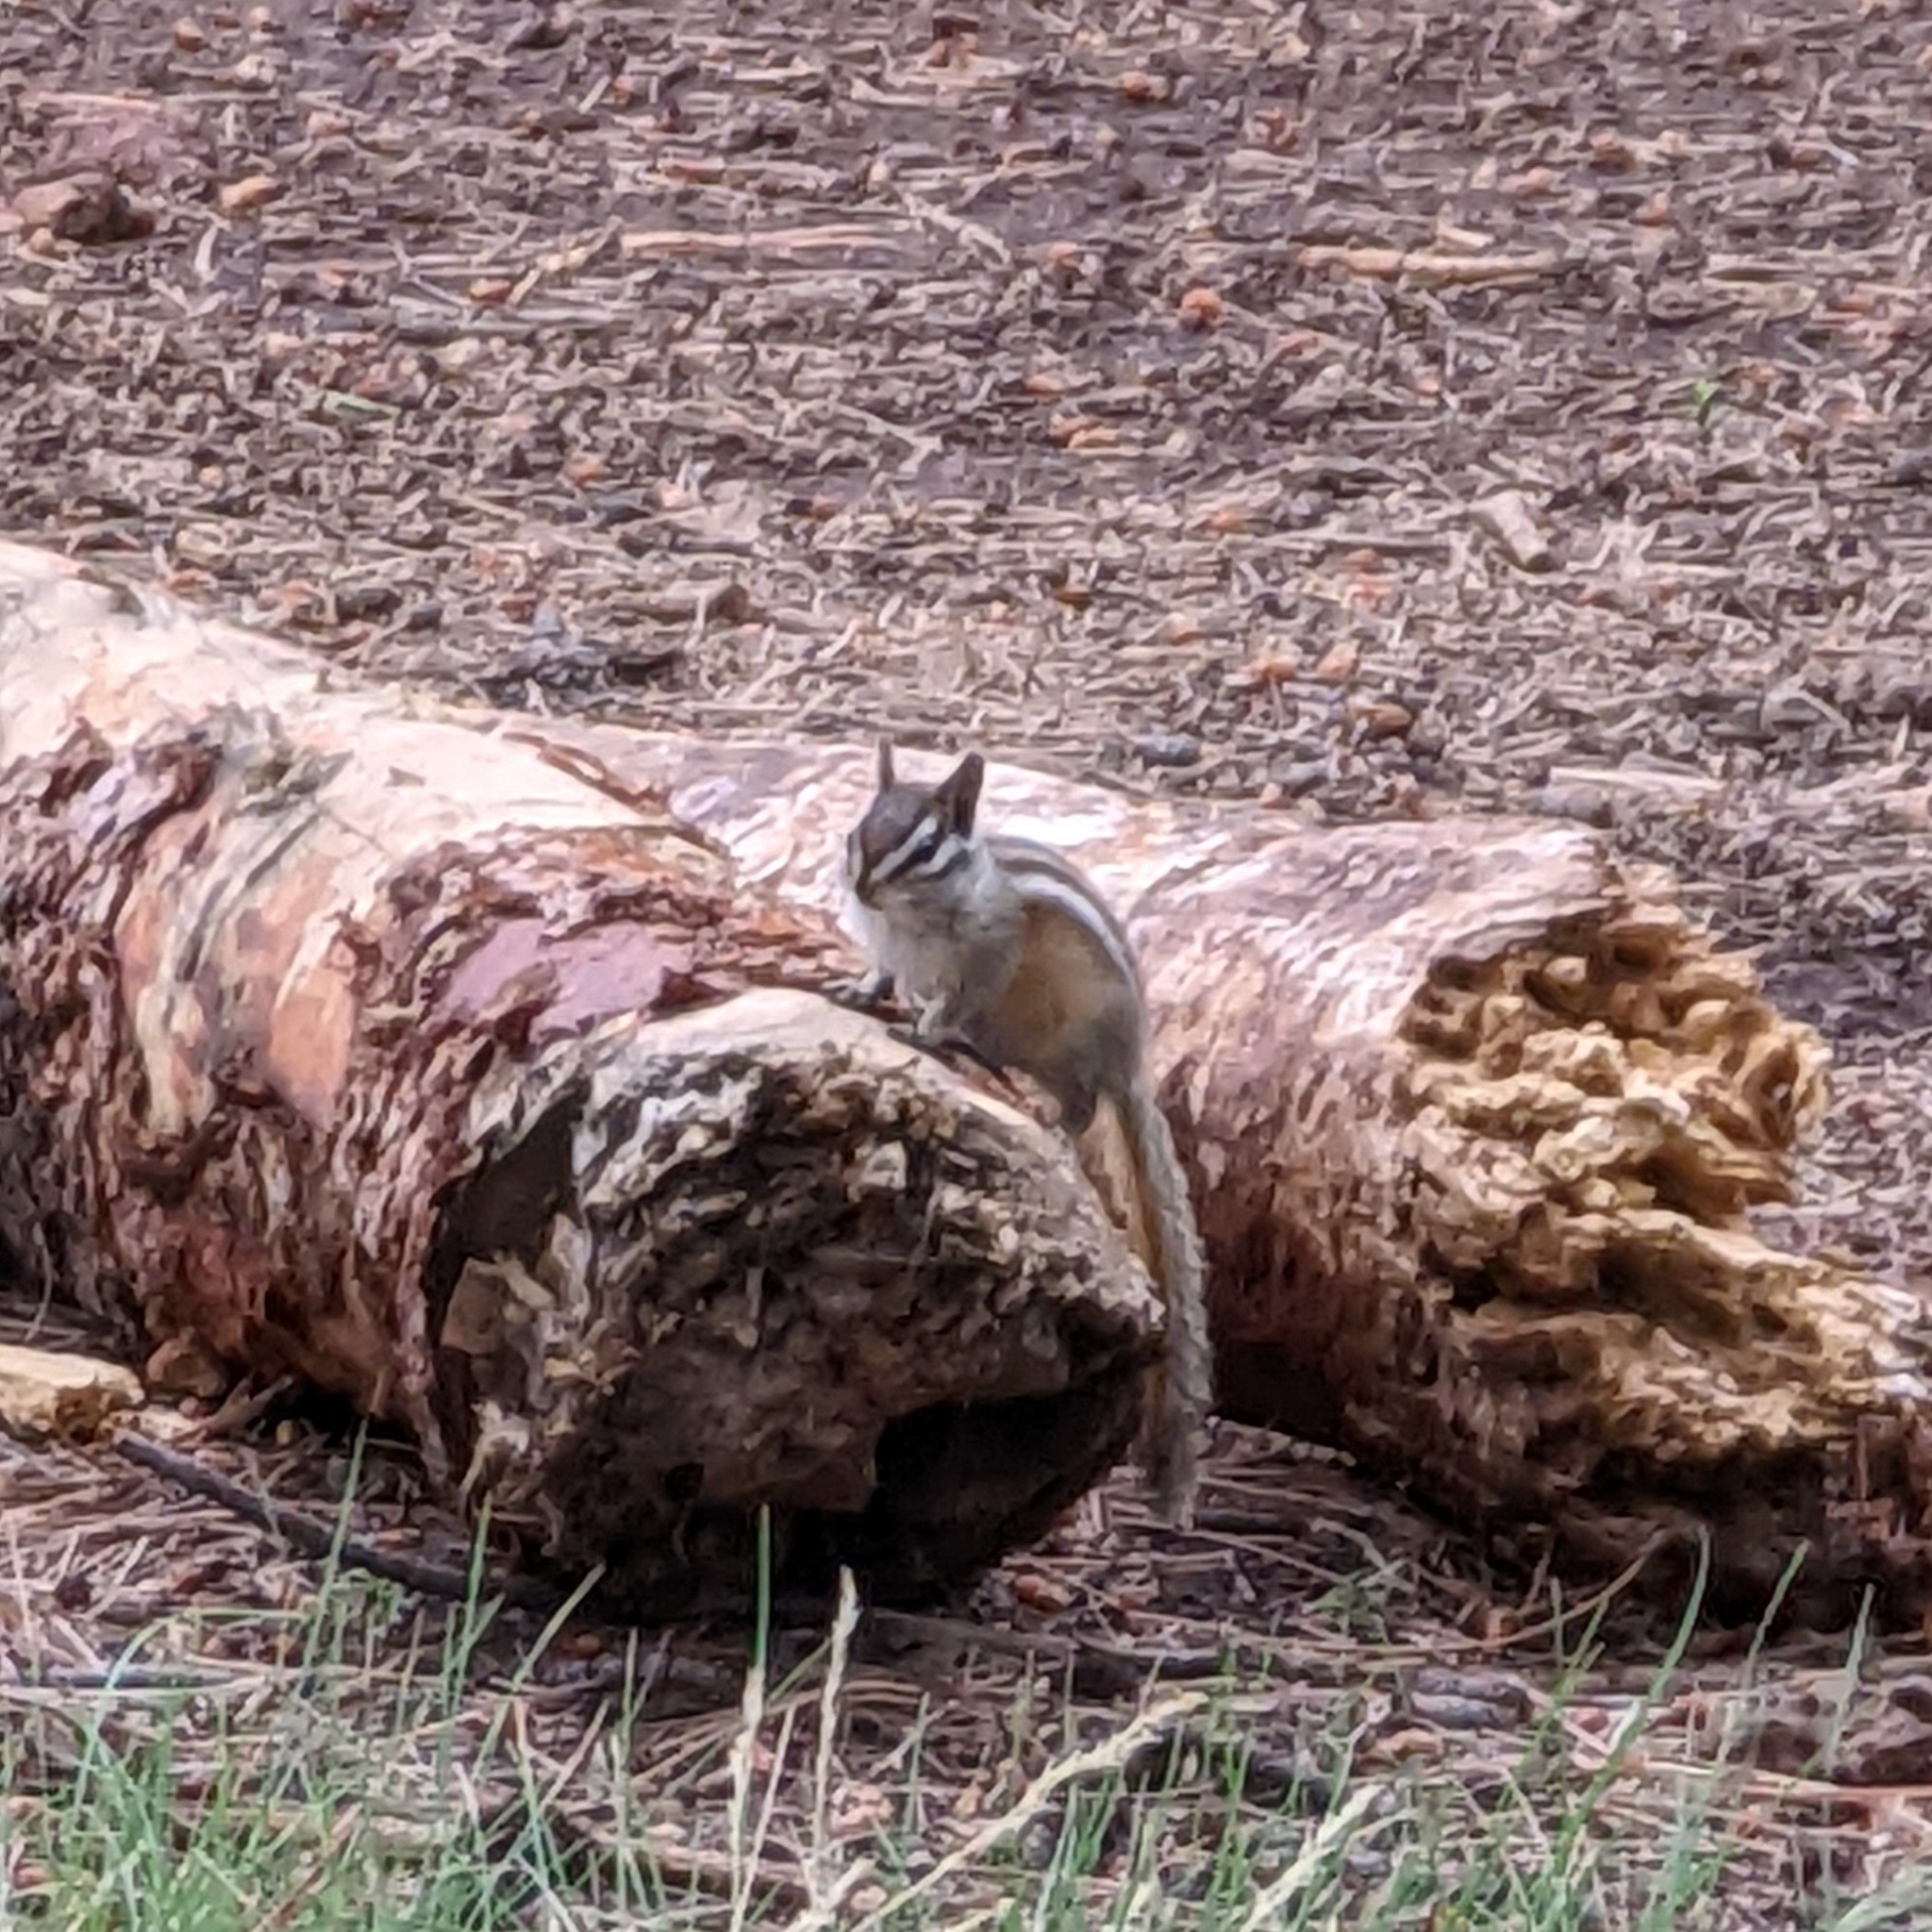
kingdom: Animalia
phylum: Chordata
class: Mammalia
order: Rodentia
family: Sciuridae
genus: Tamias
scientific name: Tamias cinereicollis
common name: Gray-collared chipmunk
